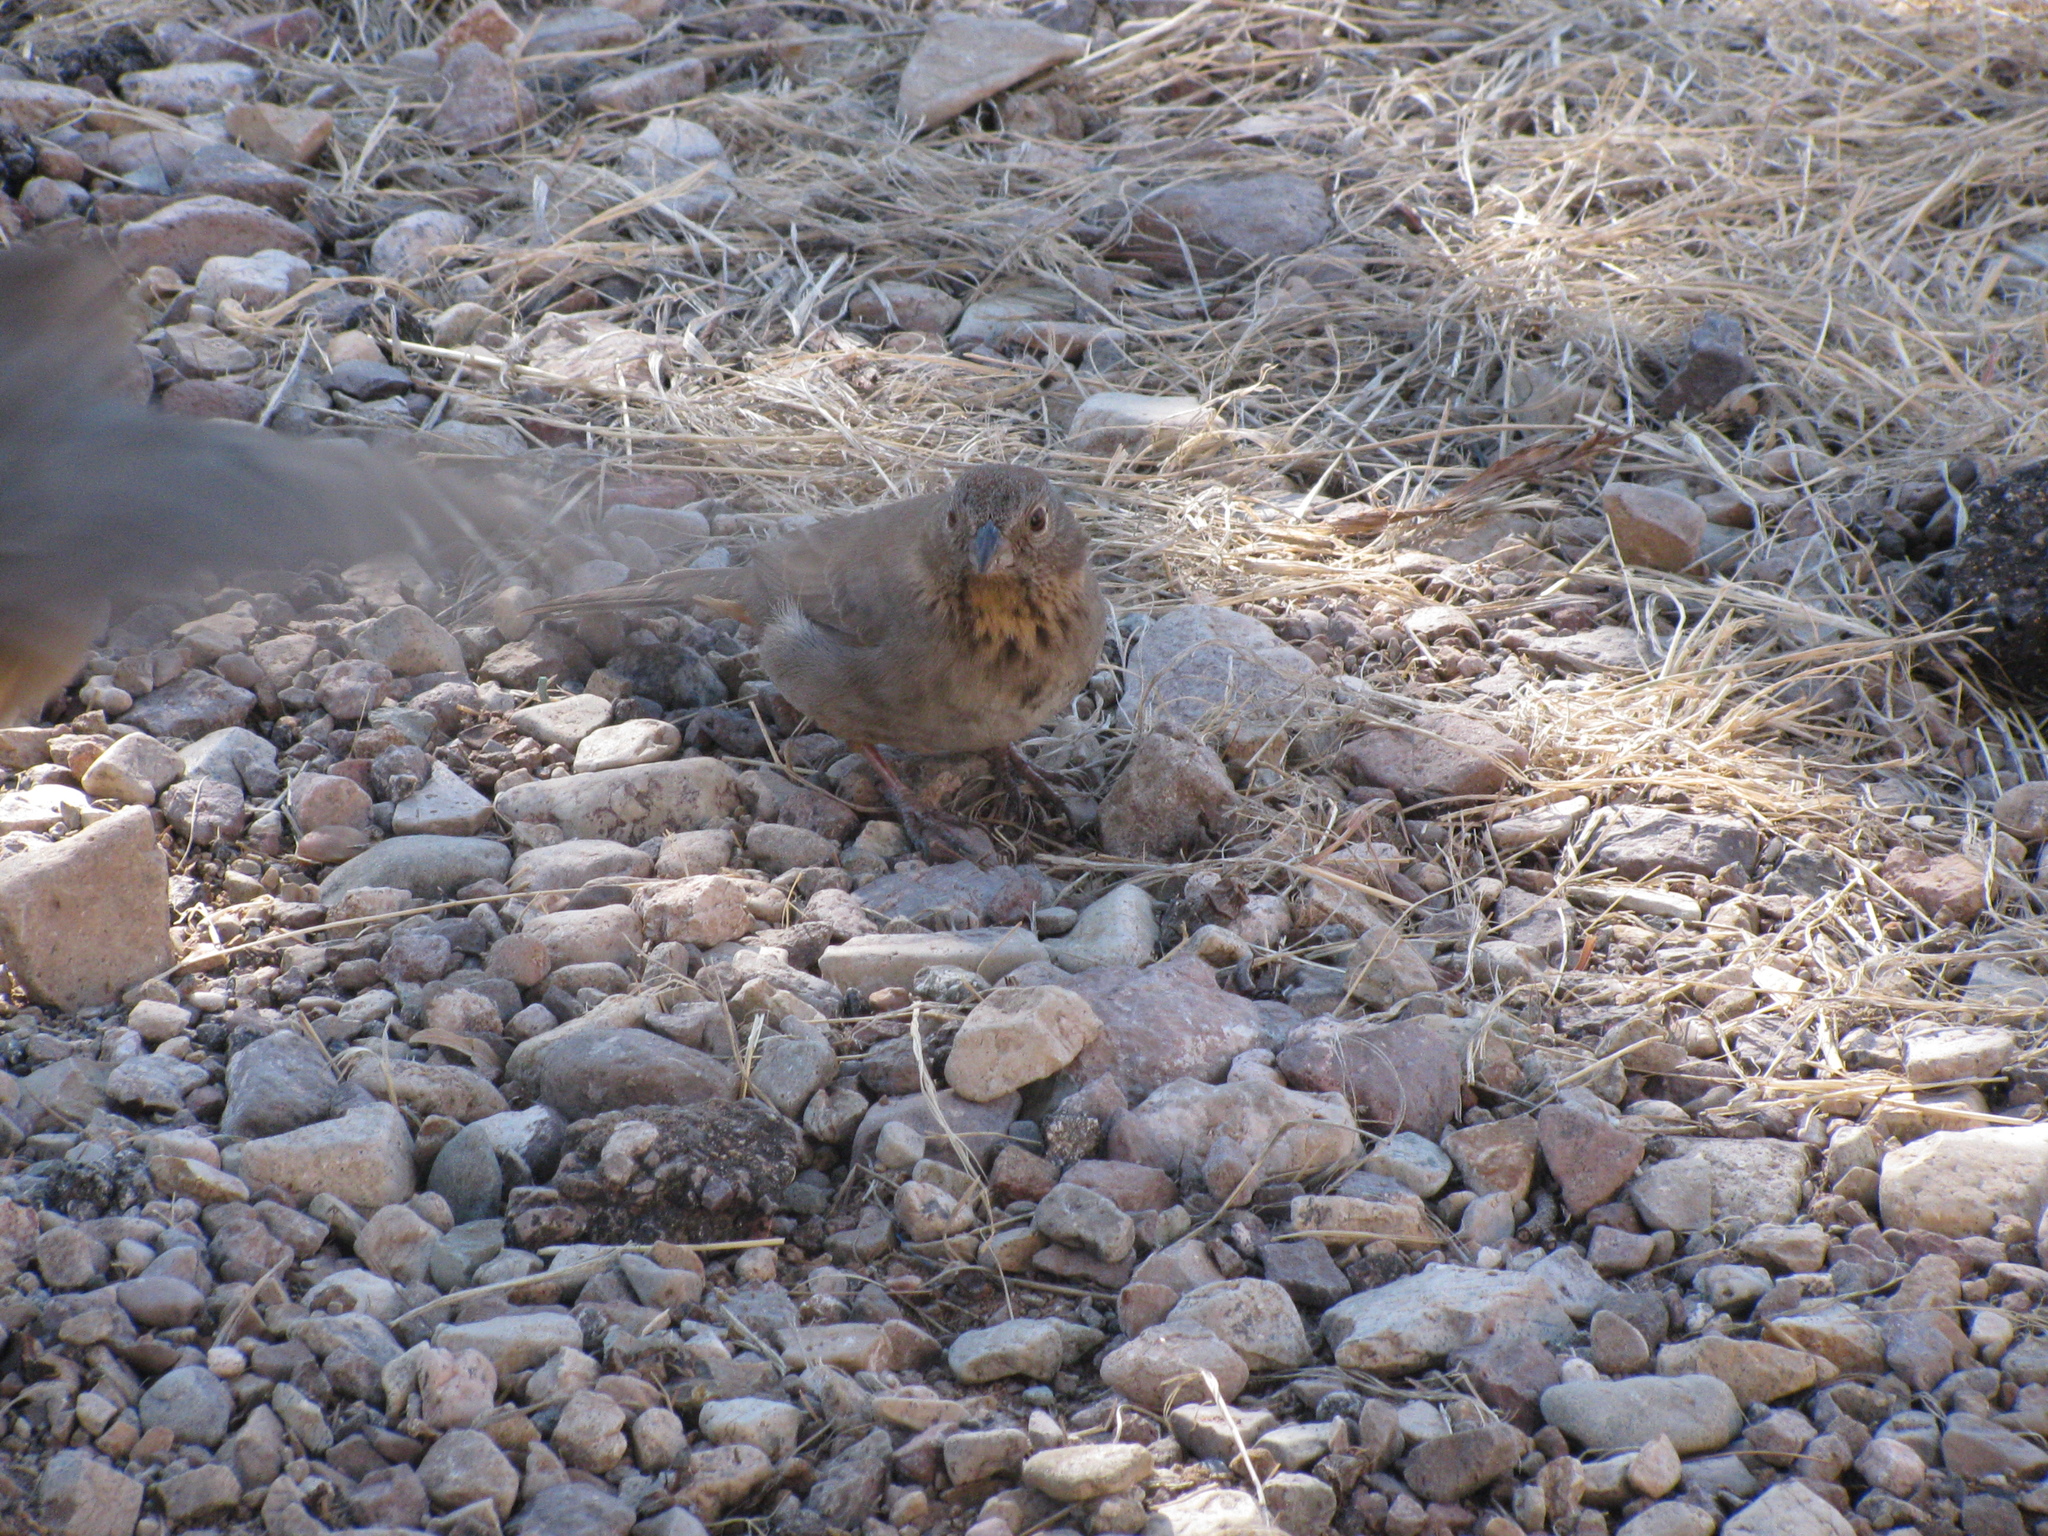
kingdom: Animalia
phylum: Chordata
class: Aves
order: Passeriformes
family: Passerellidae
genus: Melozone
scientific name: Melozone fusca
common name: Canyon towhee
